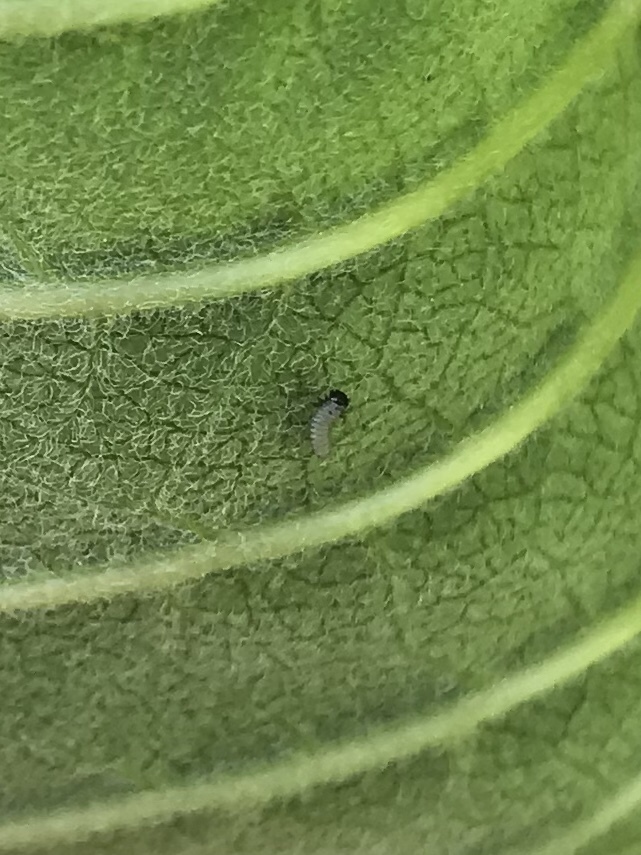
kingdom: Animalia
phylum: Arthropoda
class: Insecta
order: Lepidoptera
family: Nymphalidae
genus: Danaus
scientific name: Danaus plexippus
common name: Monarch
